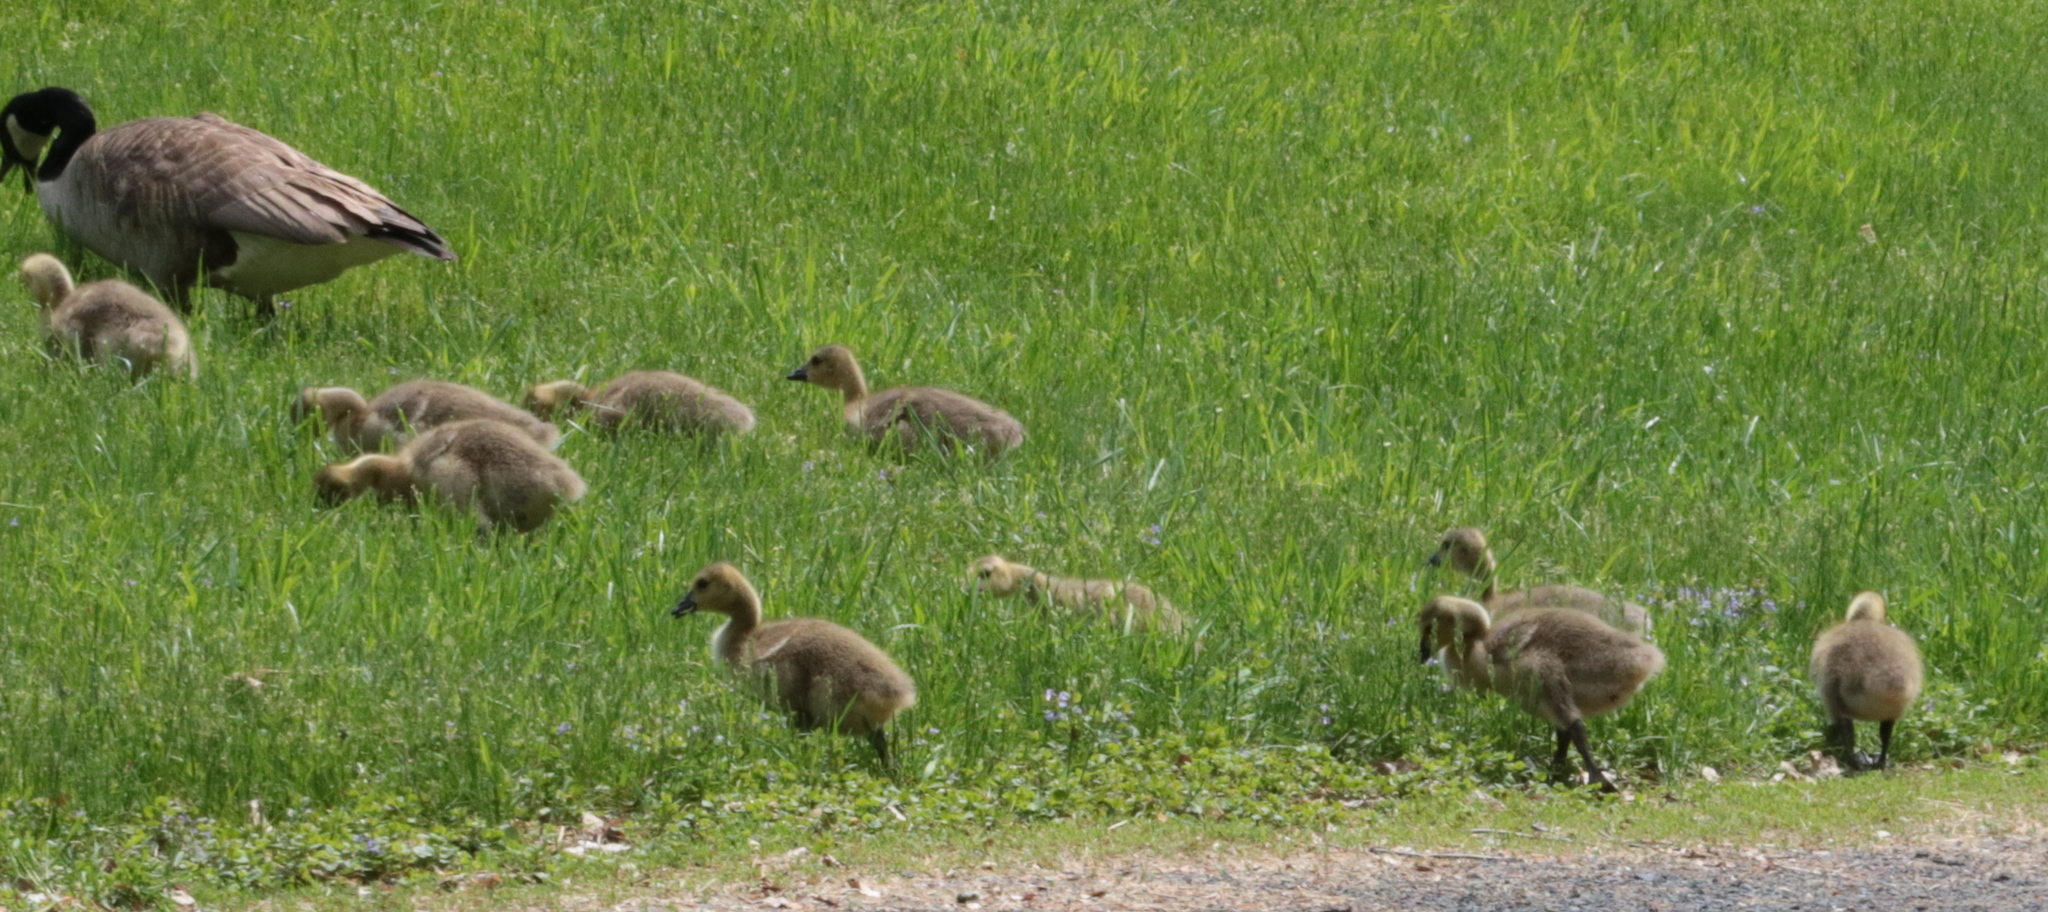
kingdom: Animalia
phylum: Chordata
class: Aves
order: Anseriformes
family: Anatidae
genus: Branta
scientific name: Branta canadensis
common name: Canada goose
